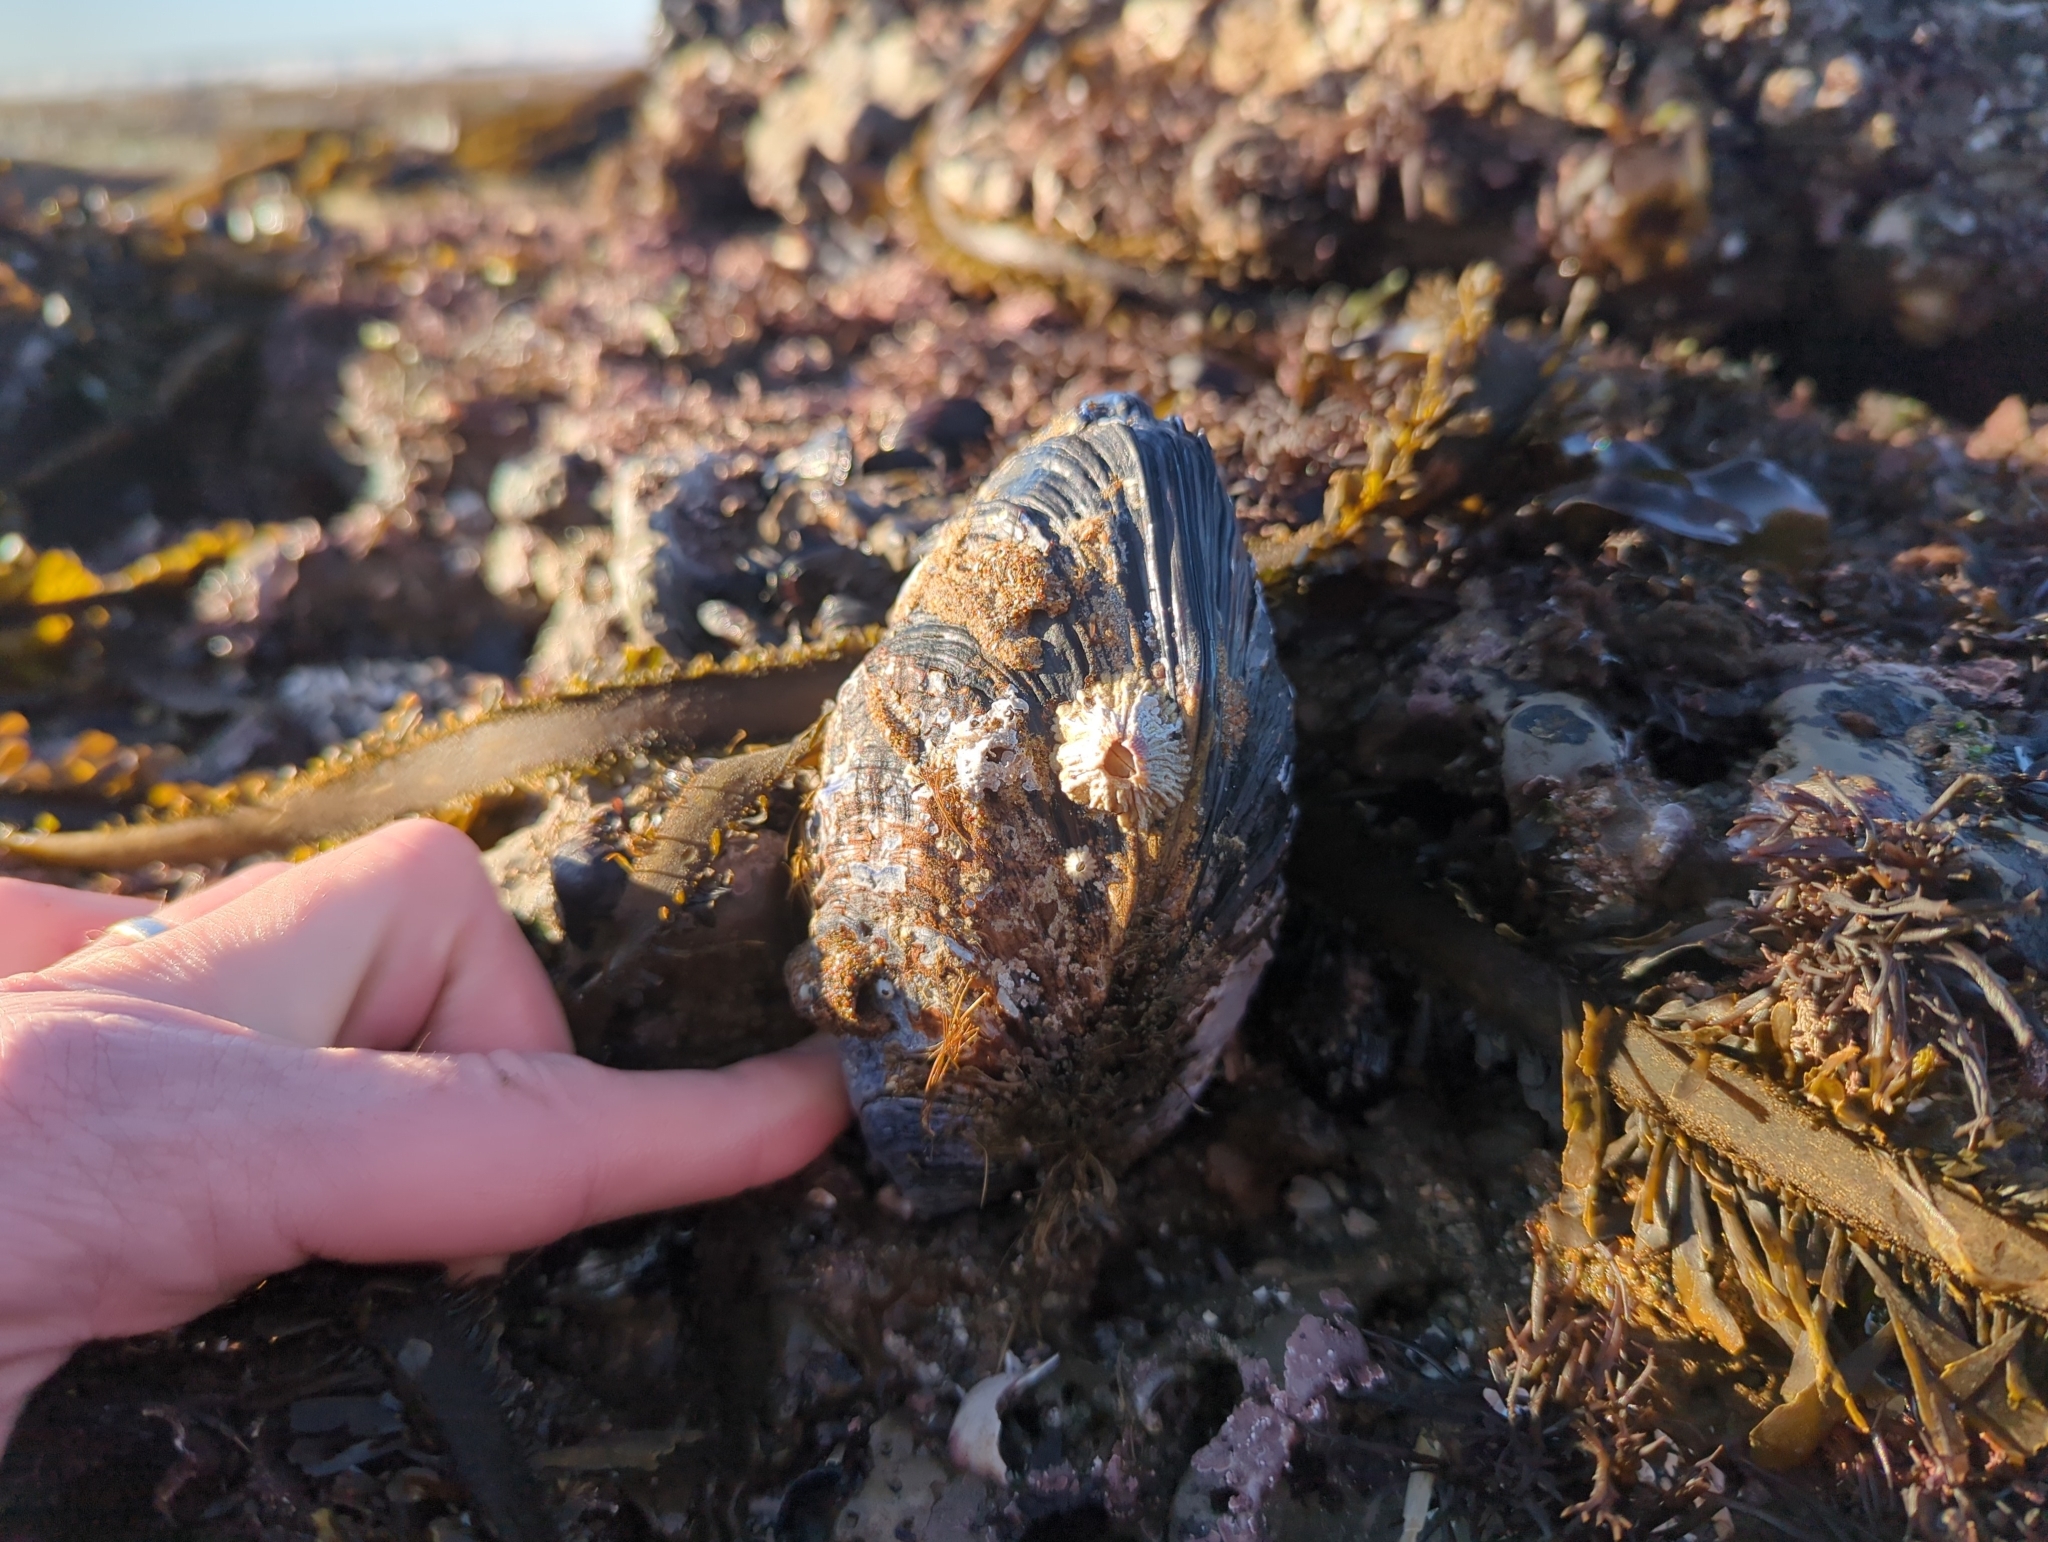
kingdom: Animalia
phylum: Mollusca
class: Bivalvia
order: Mytilida
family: Mytilidae
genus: Mytilus
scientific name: Mytilus californianus
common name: California mussel
